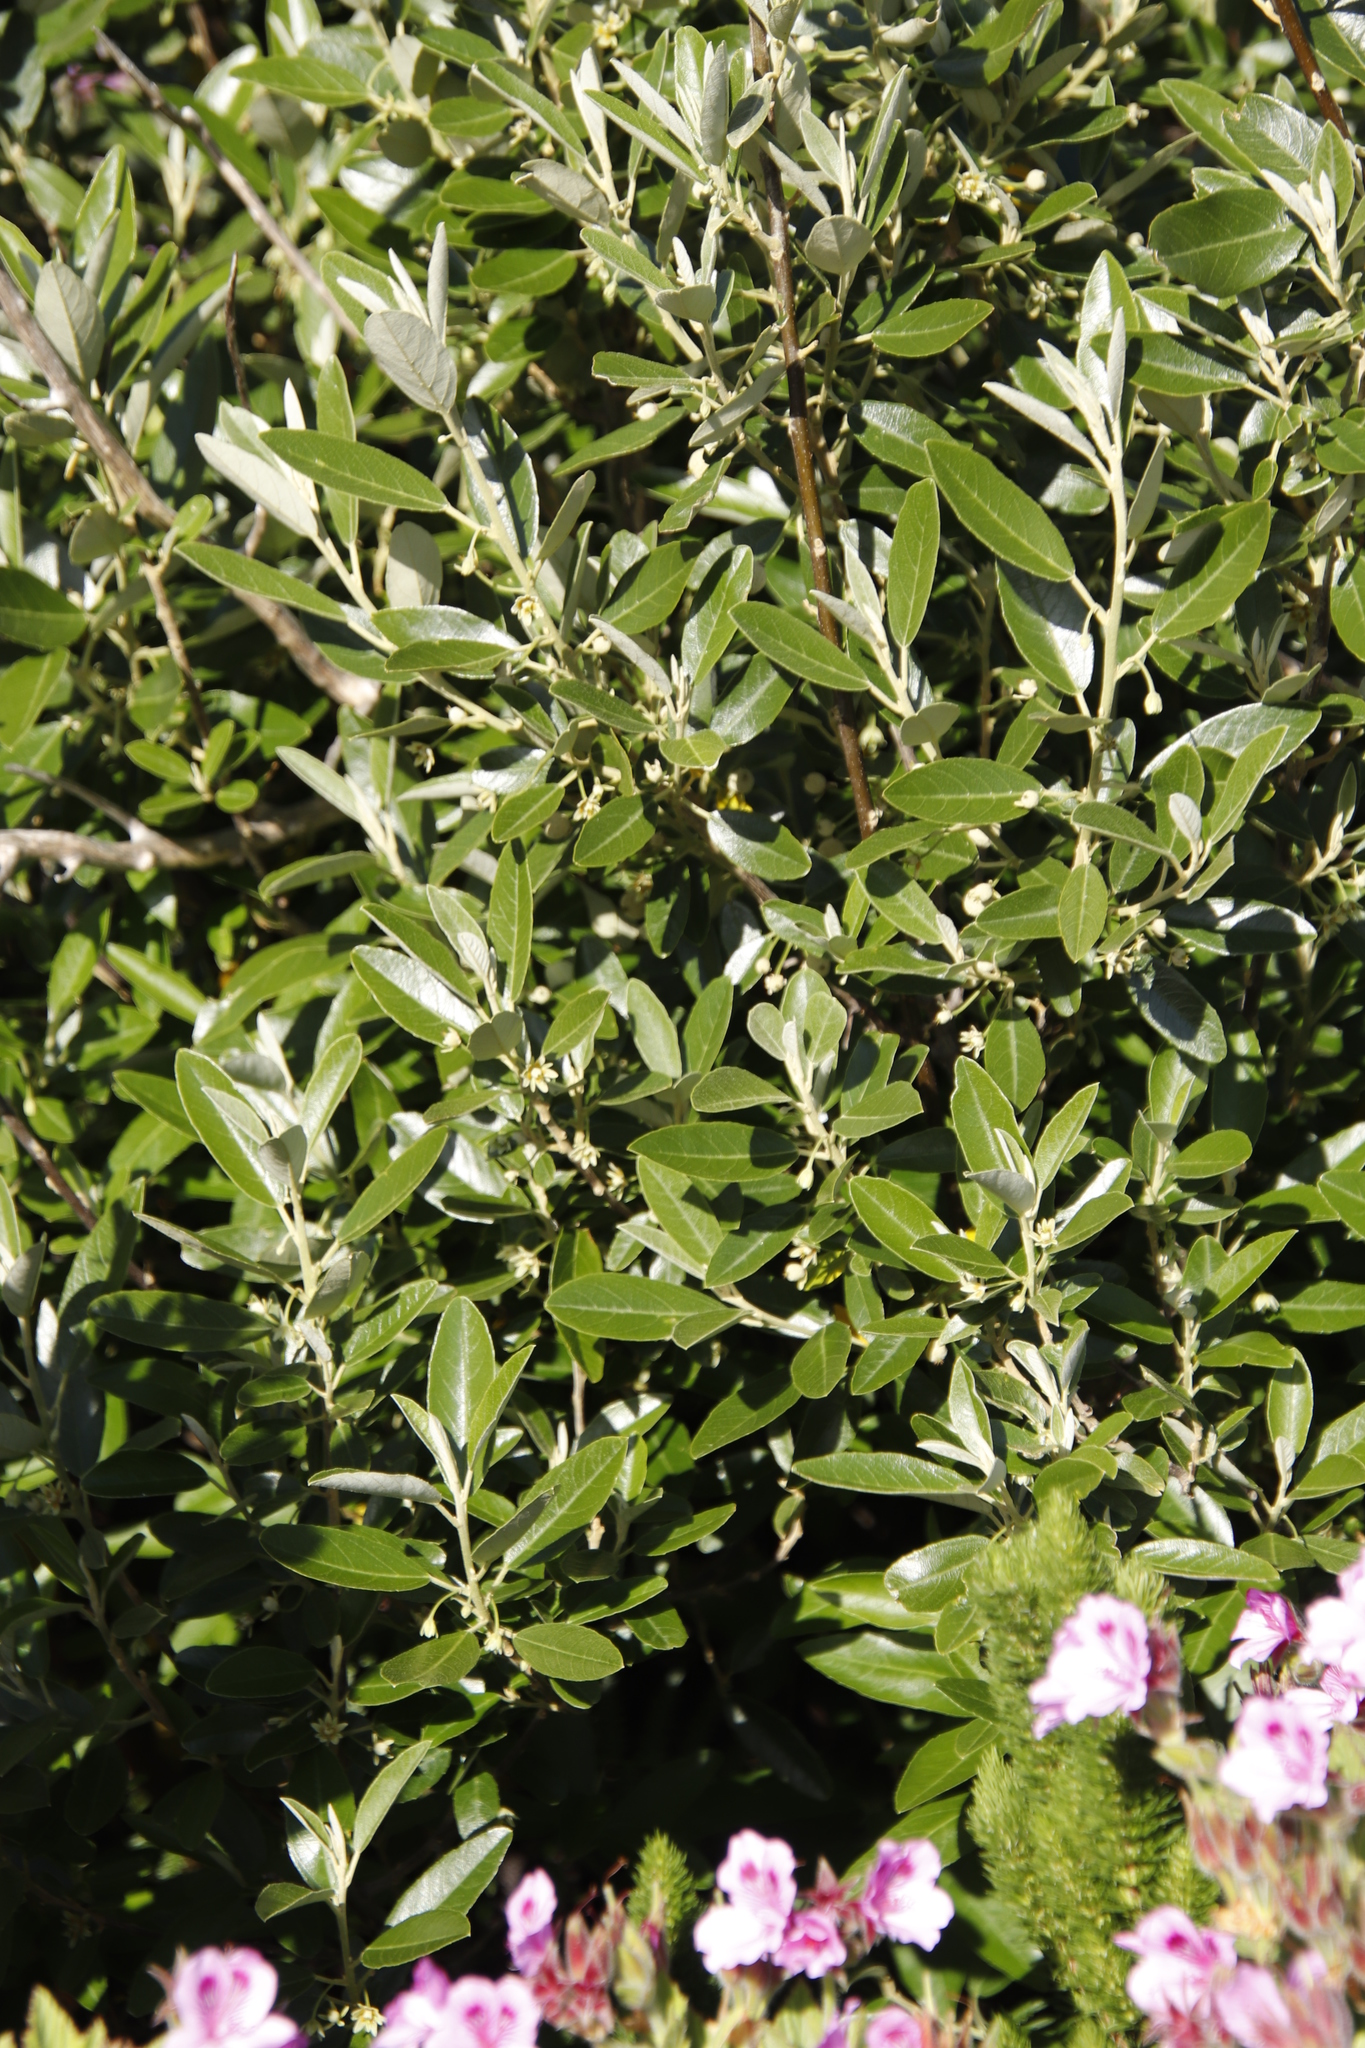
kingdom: Plantae
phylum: Tracheophyta
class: Magnoliopsida
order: Malpighiales
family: Achariaceae
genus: Kiggelaria
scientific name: Kiggelaria africana
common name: Wild peach
